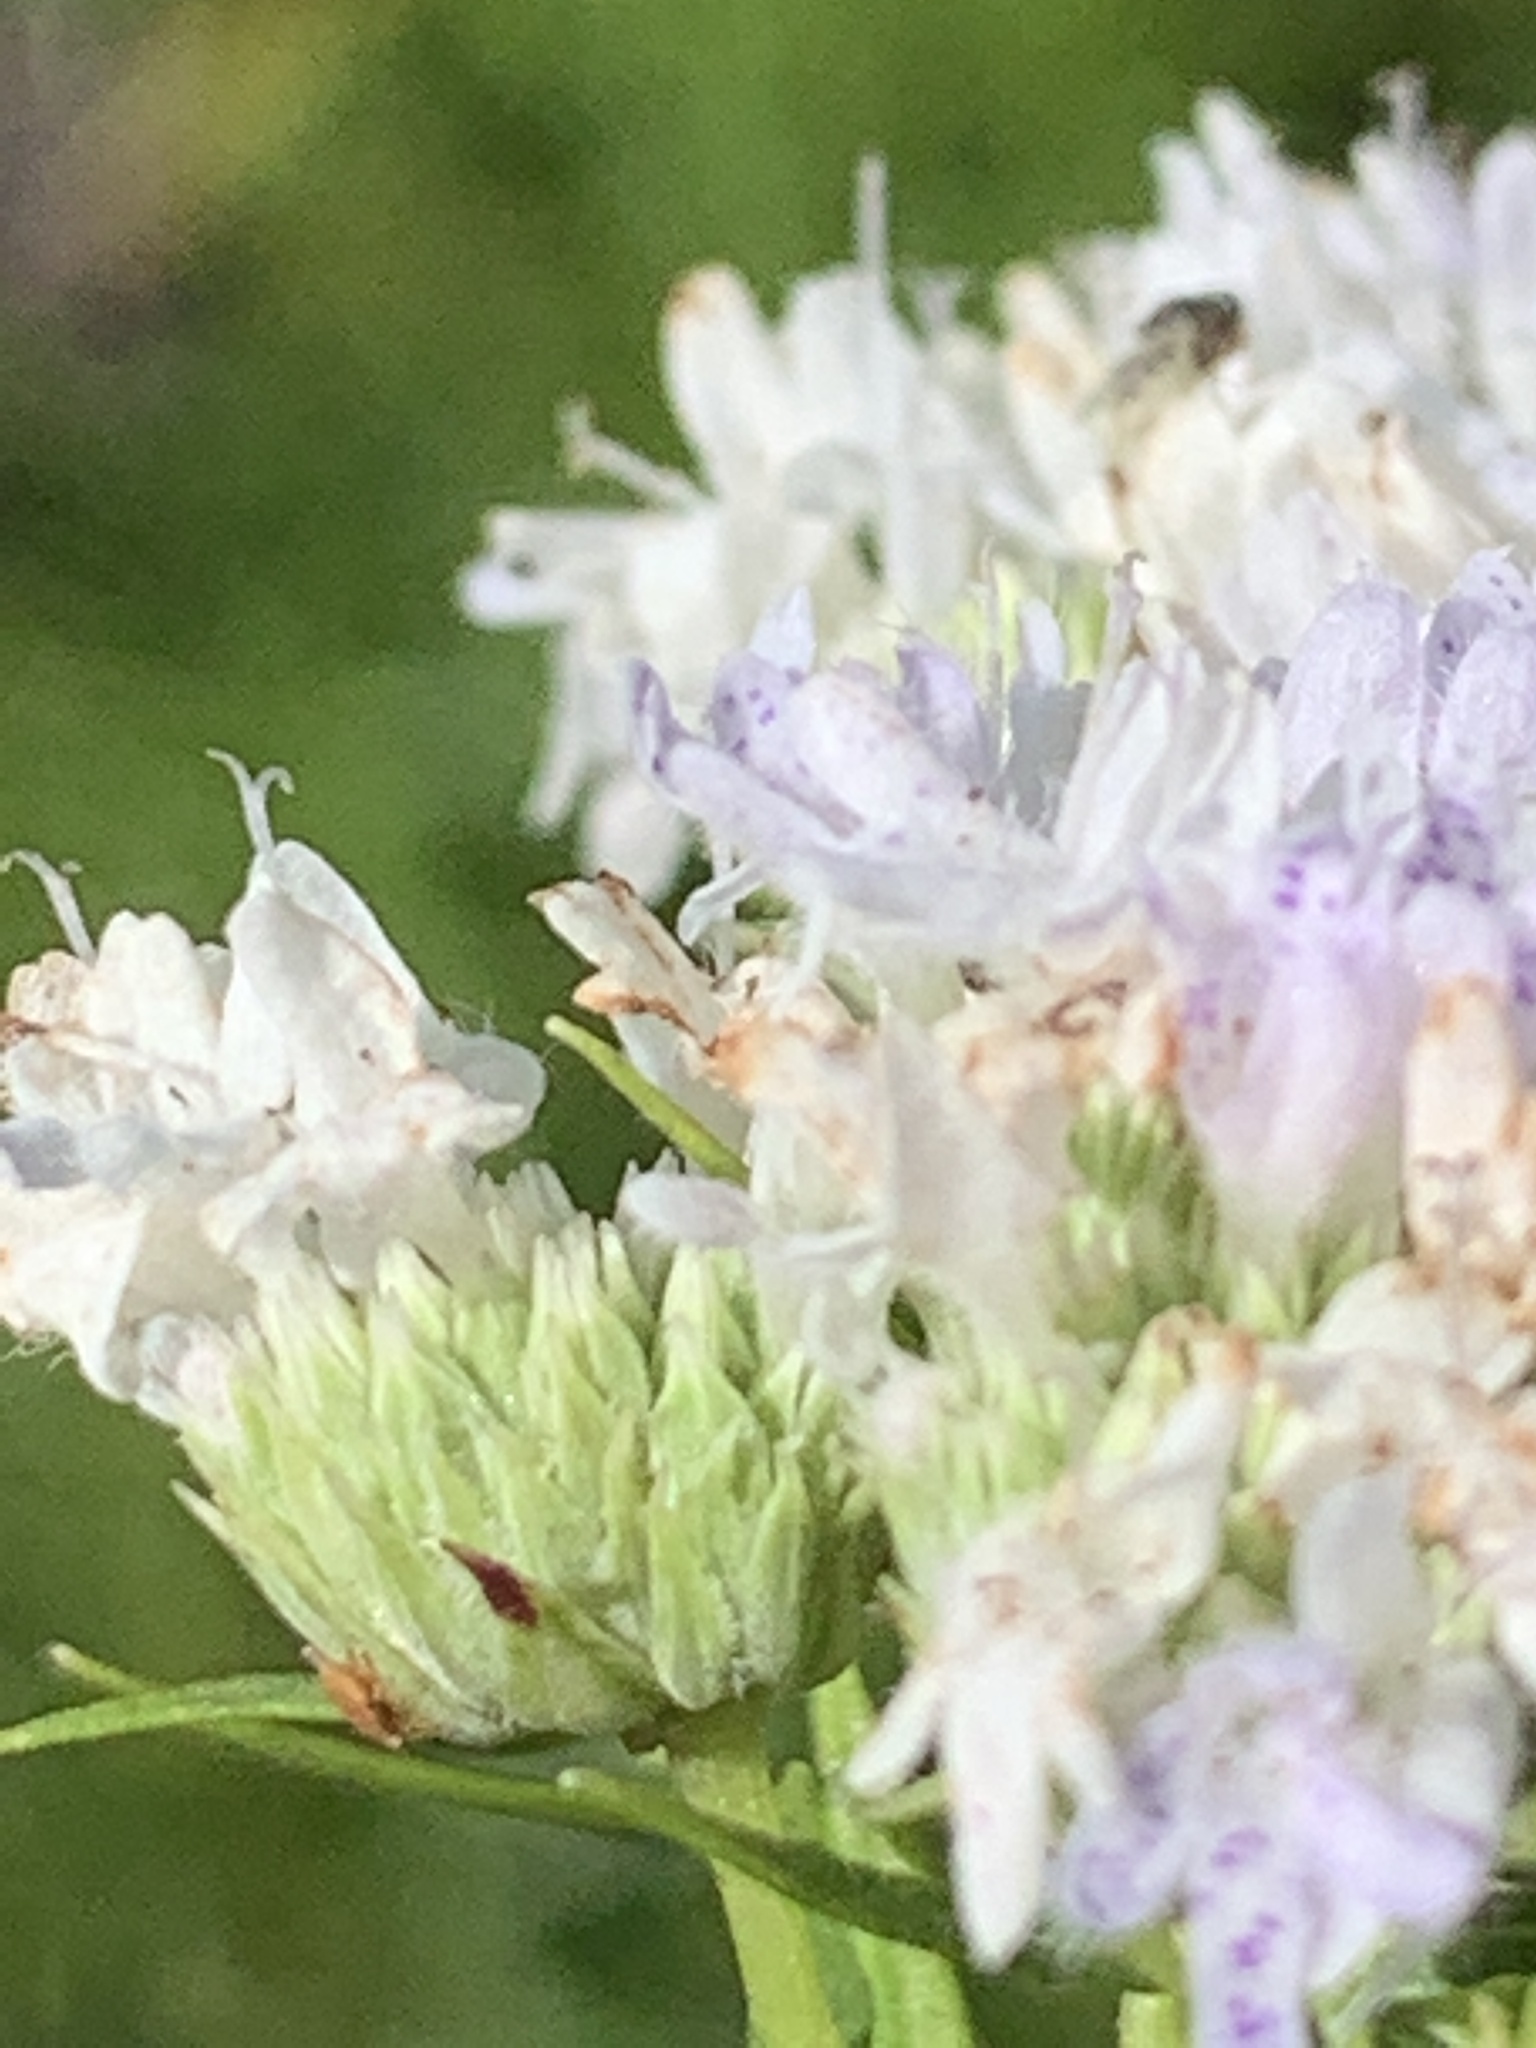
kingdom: Plantae
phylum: Tracheophyta
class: Magnoliopsida
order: Lamiales
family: Lamiaceae
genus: Pycnanthemum
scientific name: Pycnanthemum tenuifolium
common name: Narrow-leaf mountain-mint
